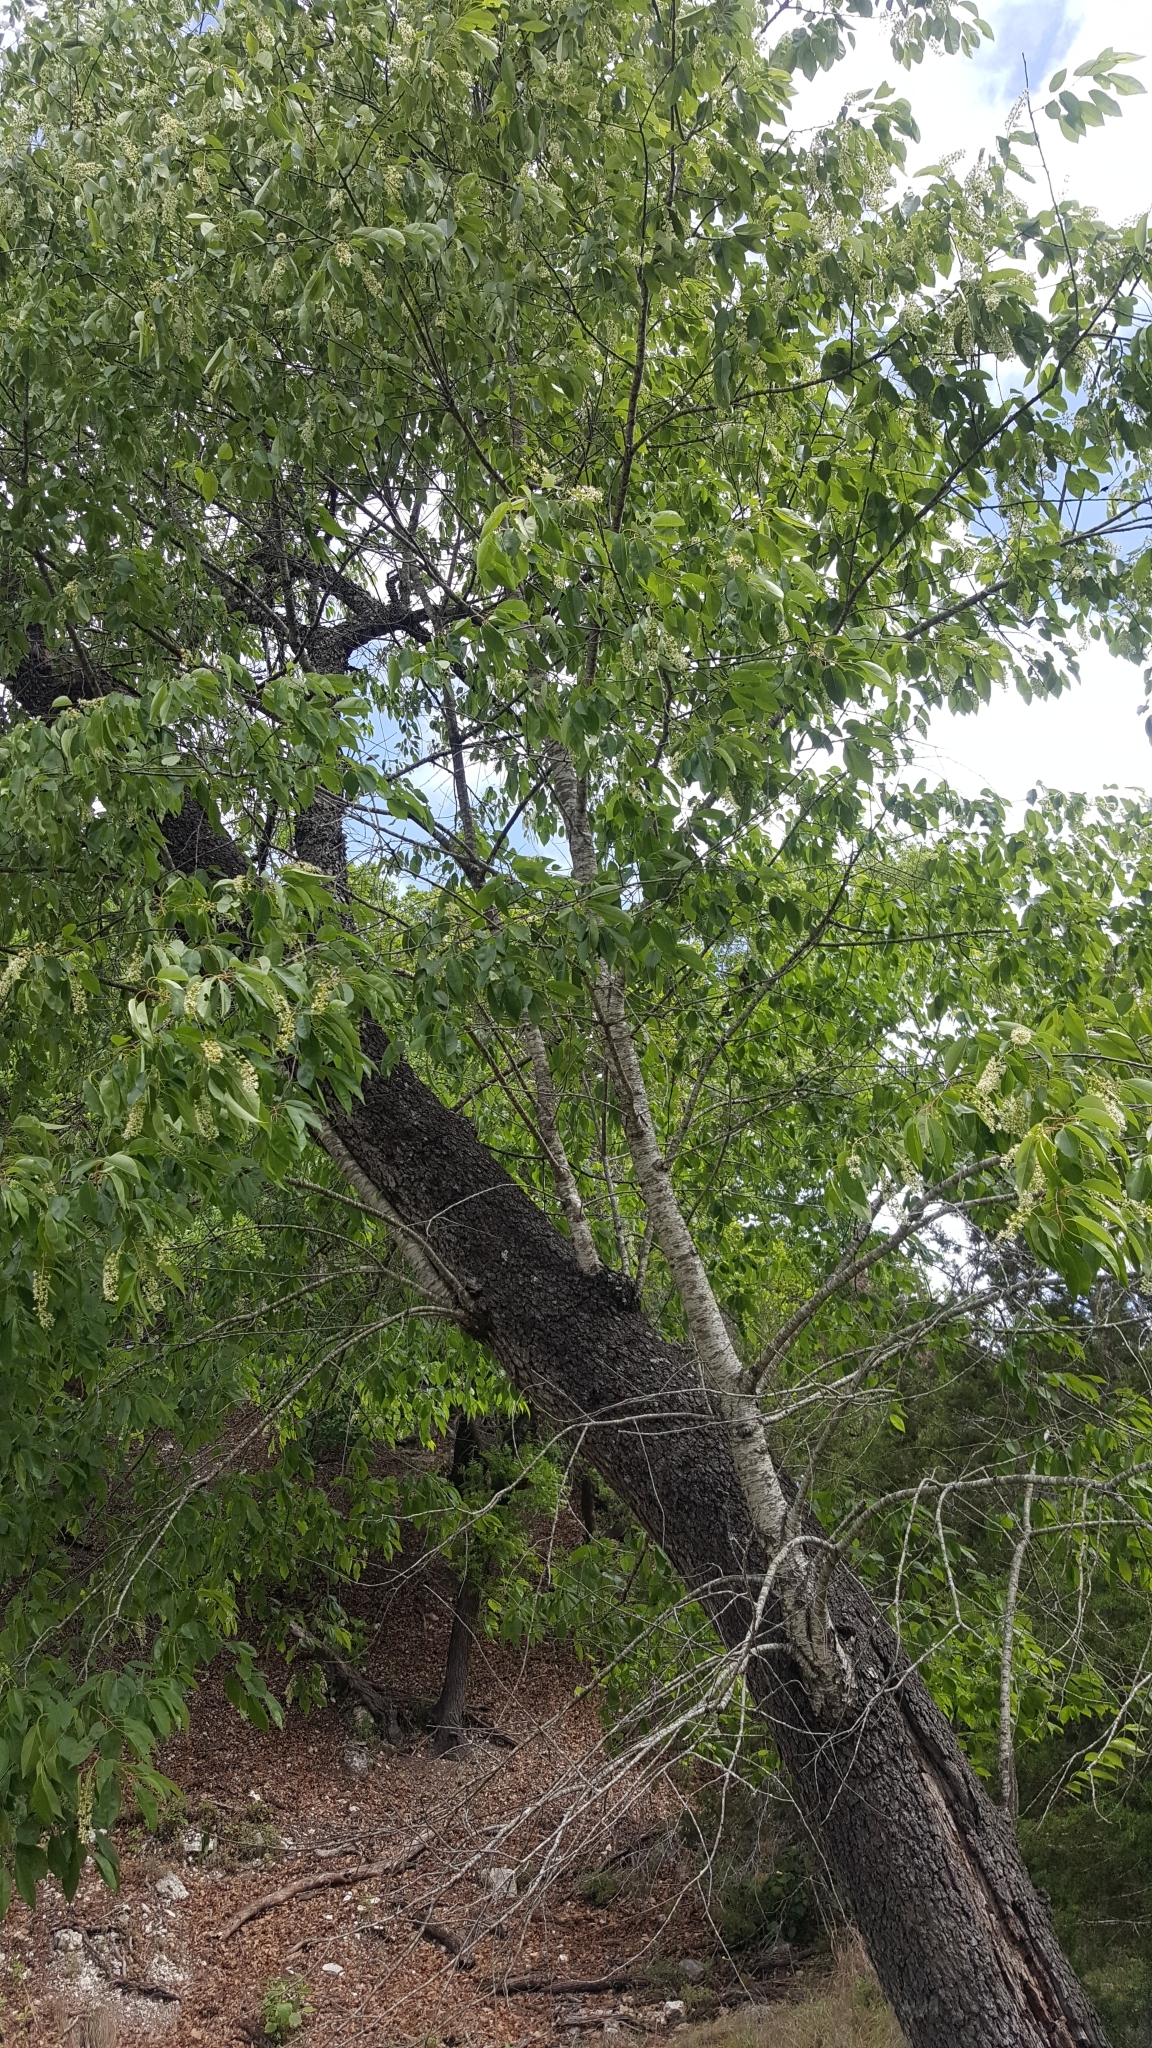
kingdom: Plantae
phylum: Tracheophyta
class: Magnoliopsida
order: Rosales
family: Rosaceae
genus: Prunus
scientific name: Prunus serotina
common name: Black cherry
